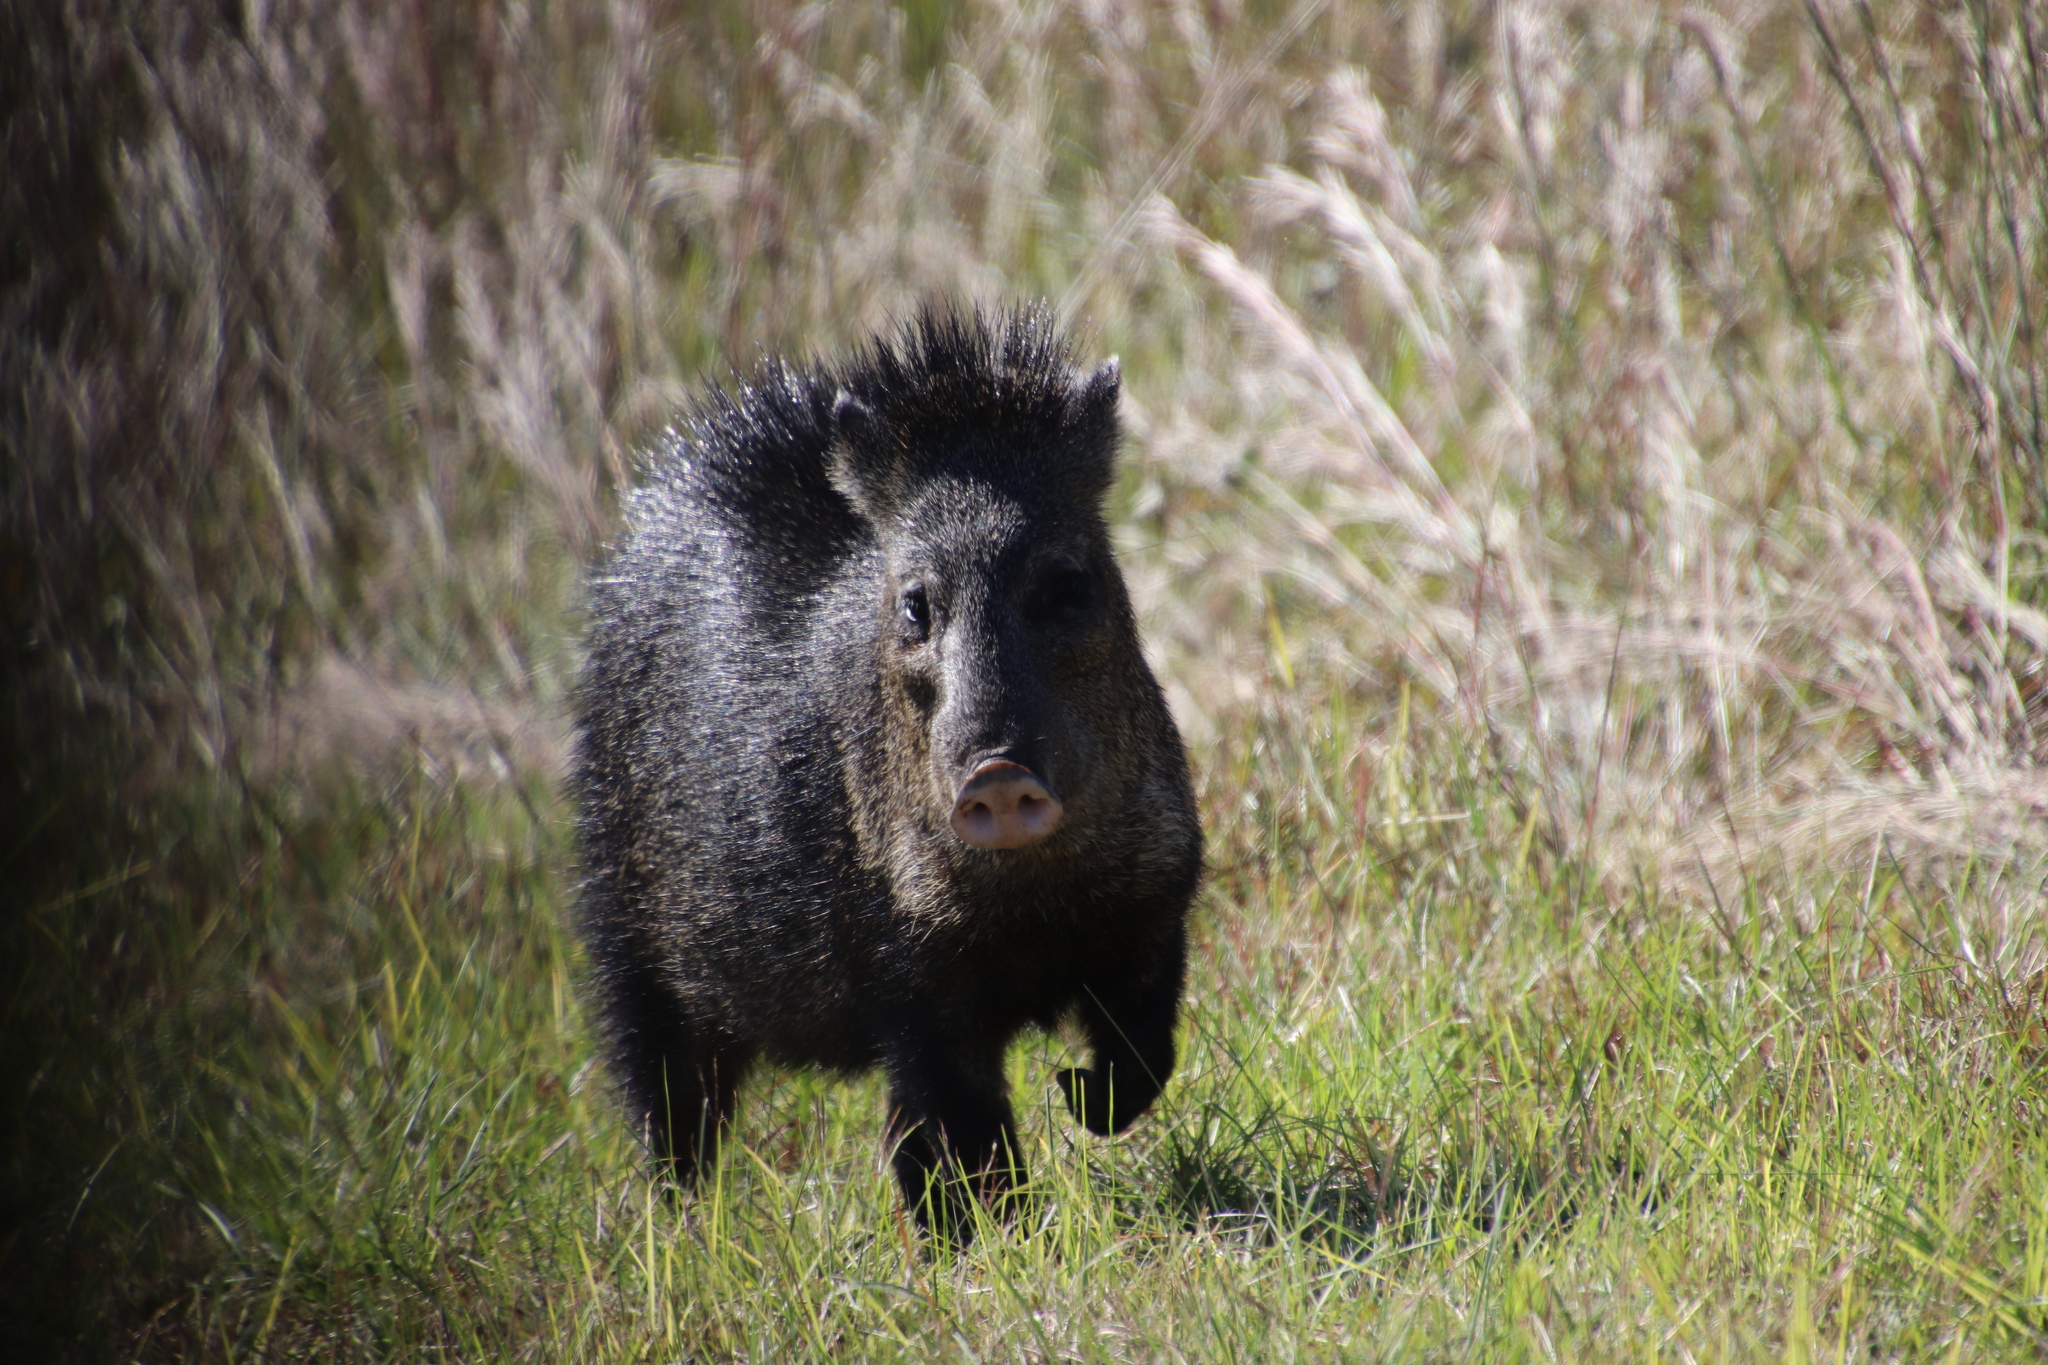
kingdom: Animalia
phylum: Chordata
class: Mammalia
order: Artiodactyla
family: Tayassuidae
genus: Pecari
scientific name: Pecari tajacu
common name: Collared peccary
